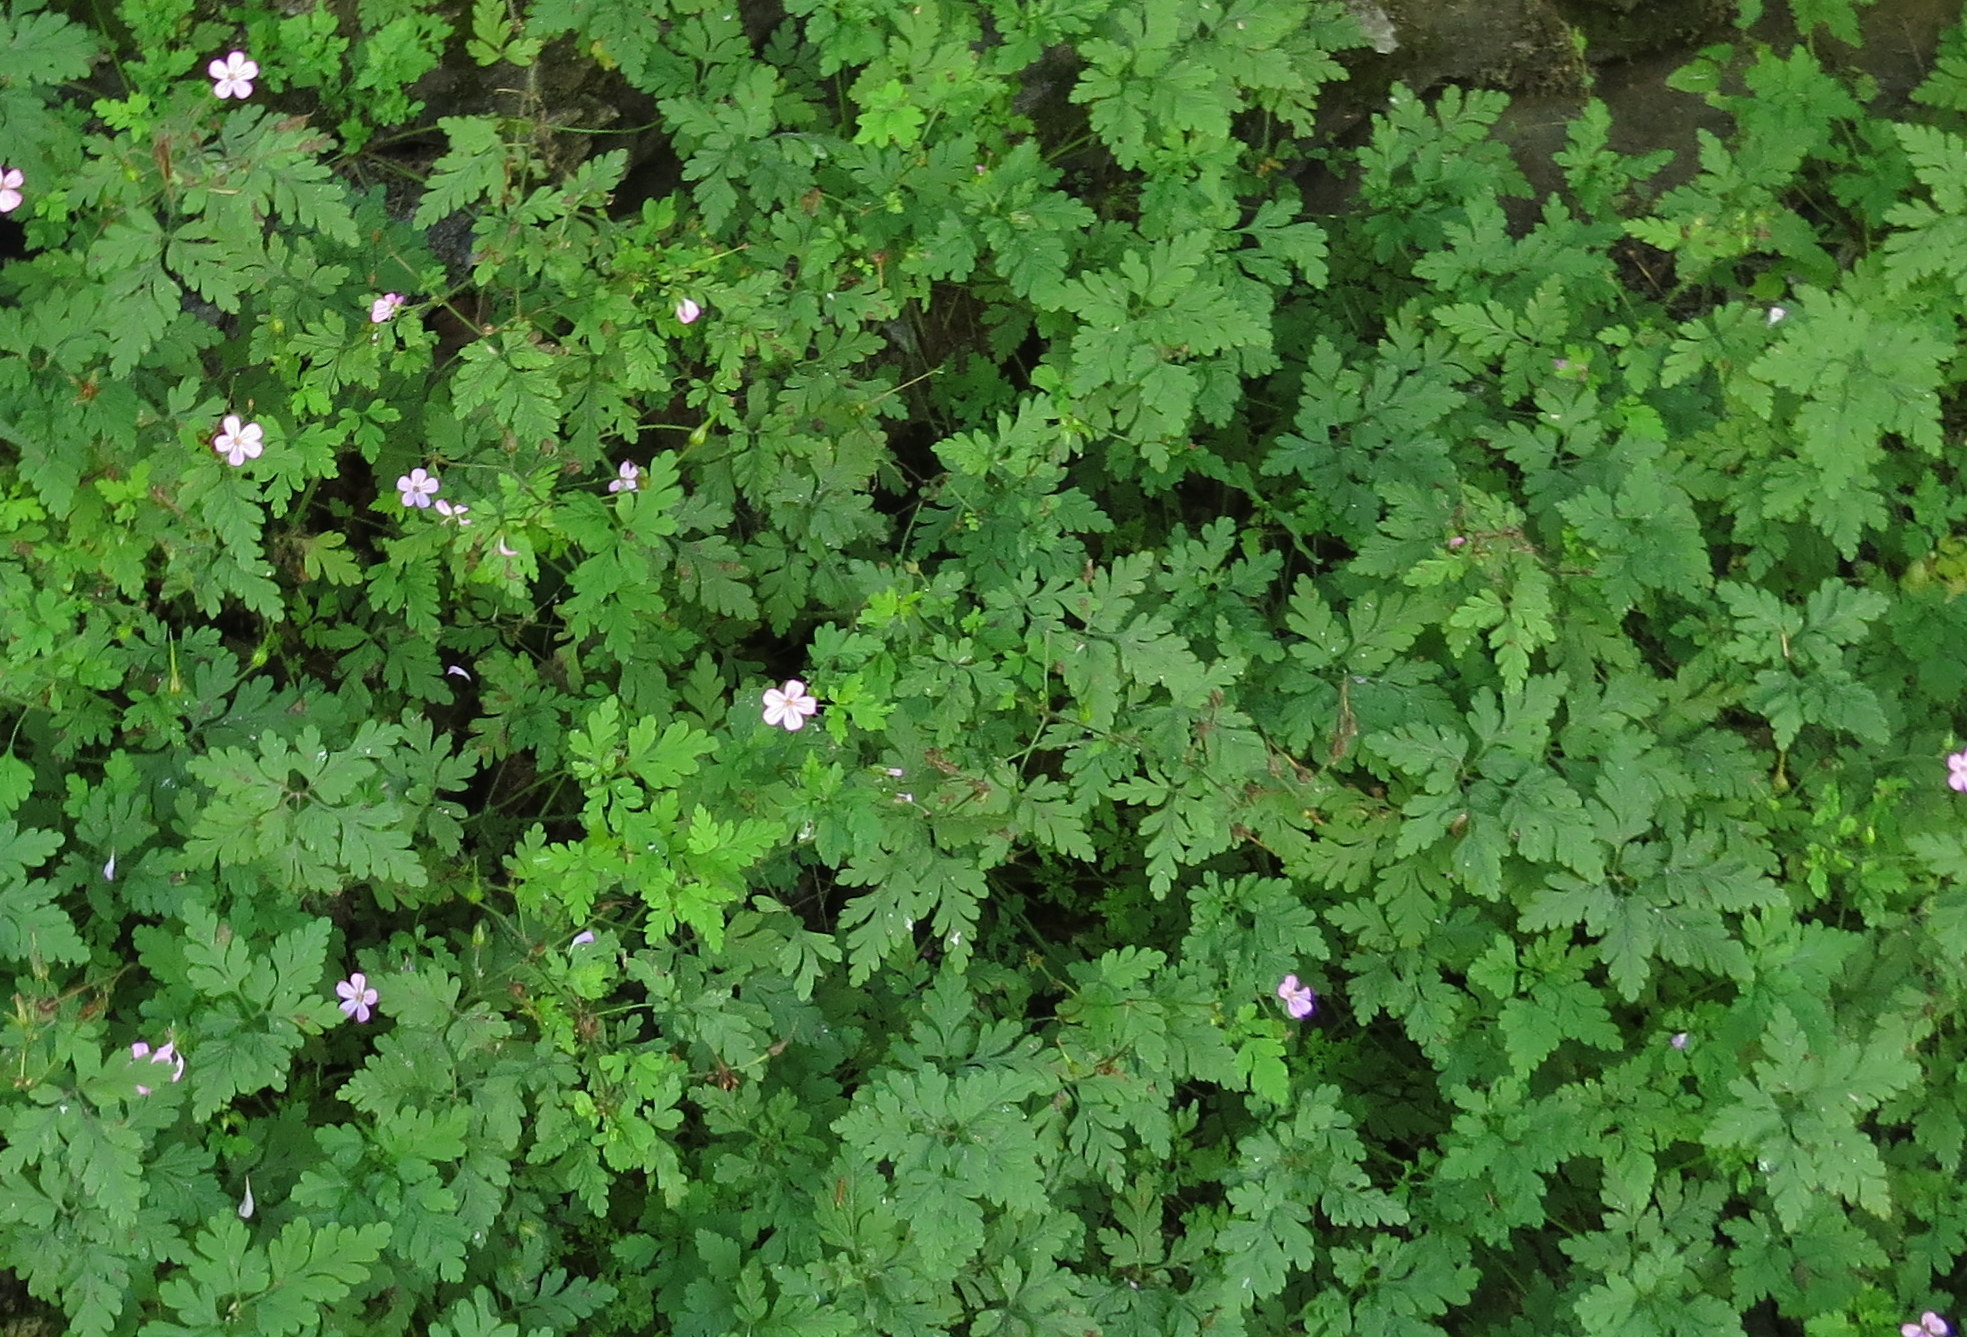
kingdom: Plantae
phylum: Tracheophyta
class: Magnoliopsida
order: Geraniales
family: Geraniaceae
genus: Geranium
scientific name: Geranium robertianum
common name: Herb-robert
